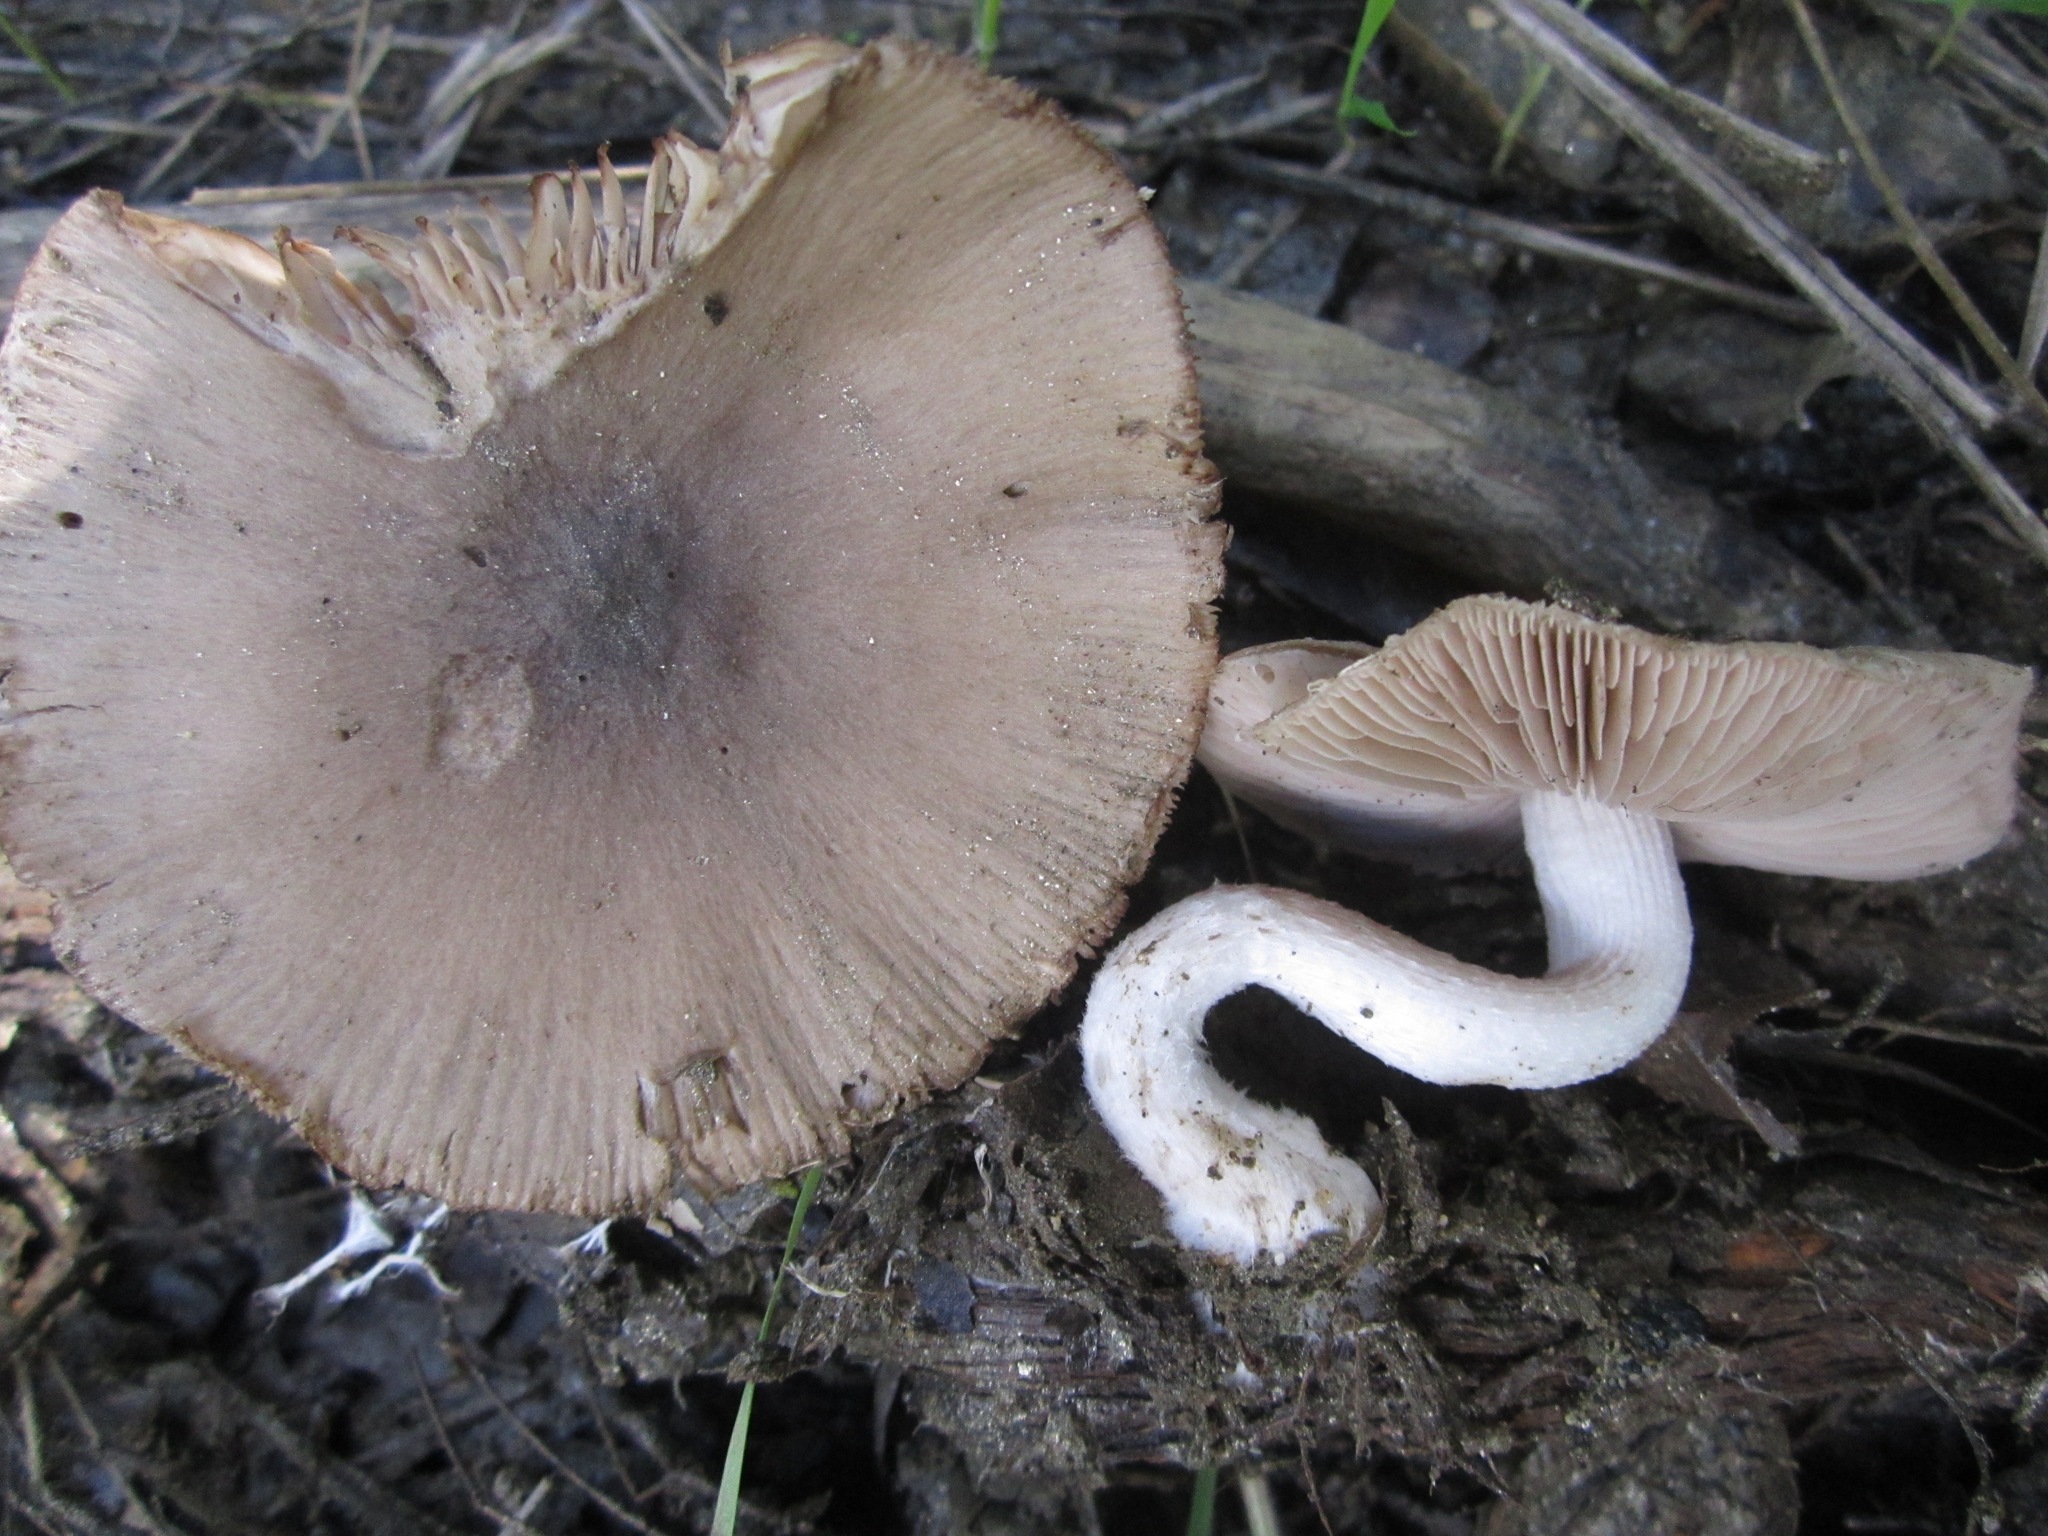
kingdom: Fungi
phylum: Basidiomycota
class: Agaricomycetes
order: Agaricales
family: Psathyrellaceae
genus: Psathyrella
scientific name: Psathyrella uliginicola
